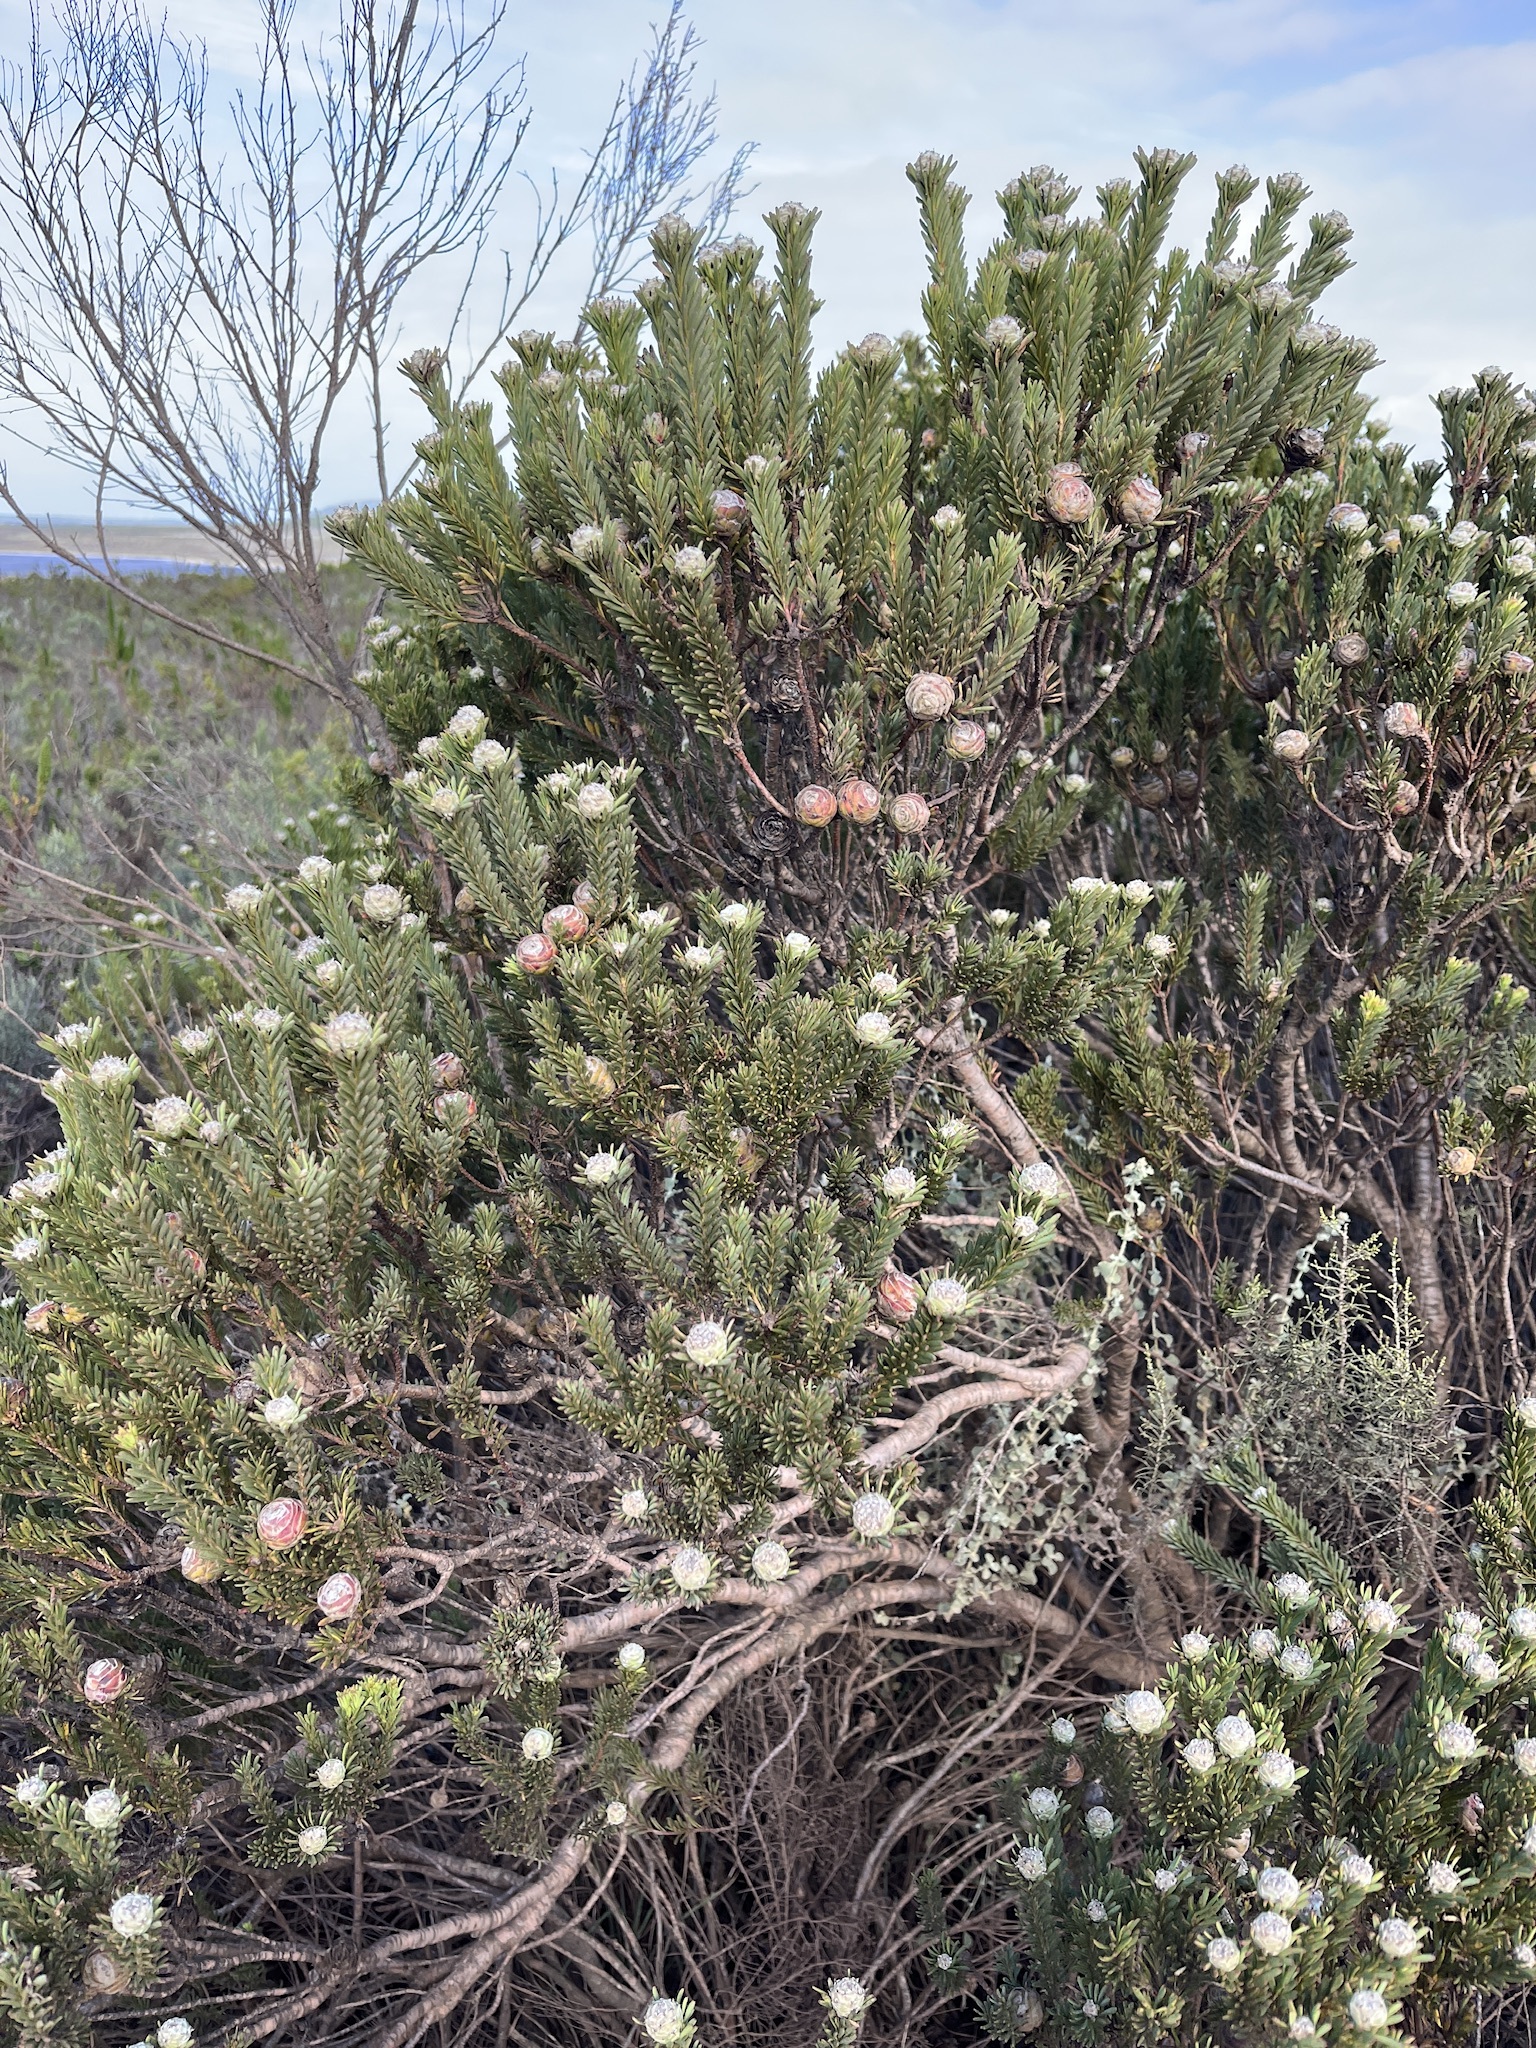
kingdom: Plantae
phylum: Tracheophyta
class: Magnoliopsida
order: Proteales
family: Proteaceae
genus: Leucadendron
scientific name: Leucadendron linifolium
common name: Line-leaf conebush
